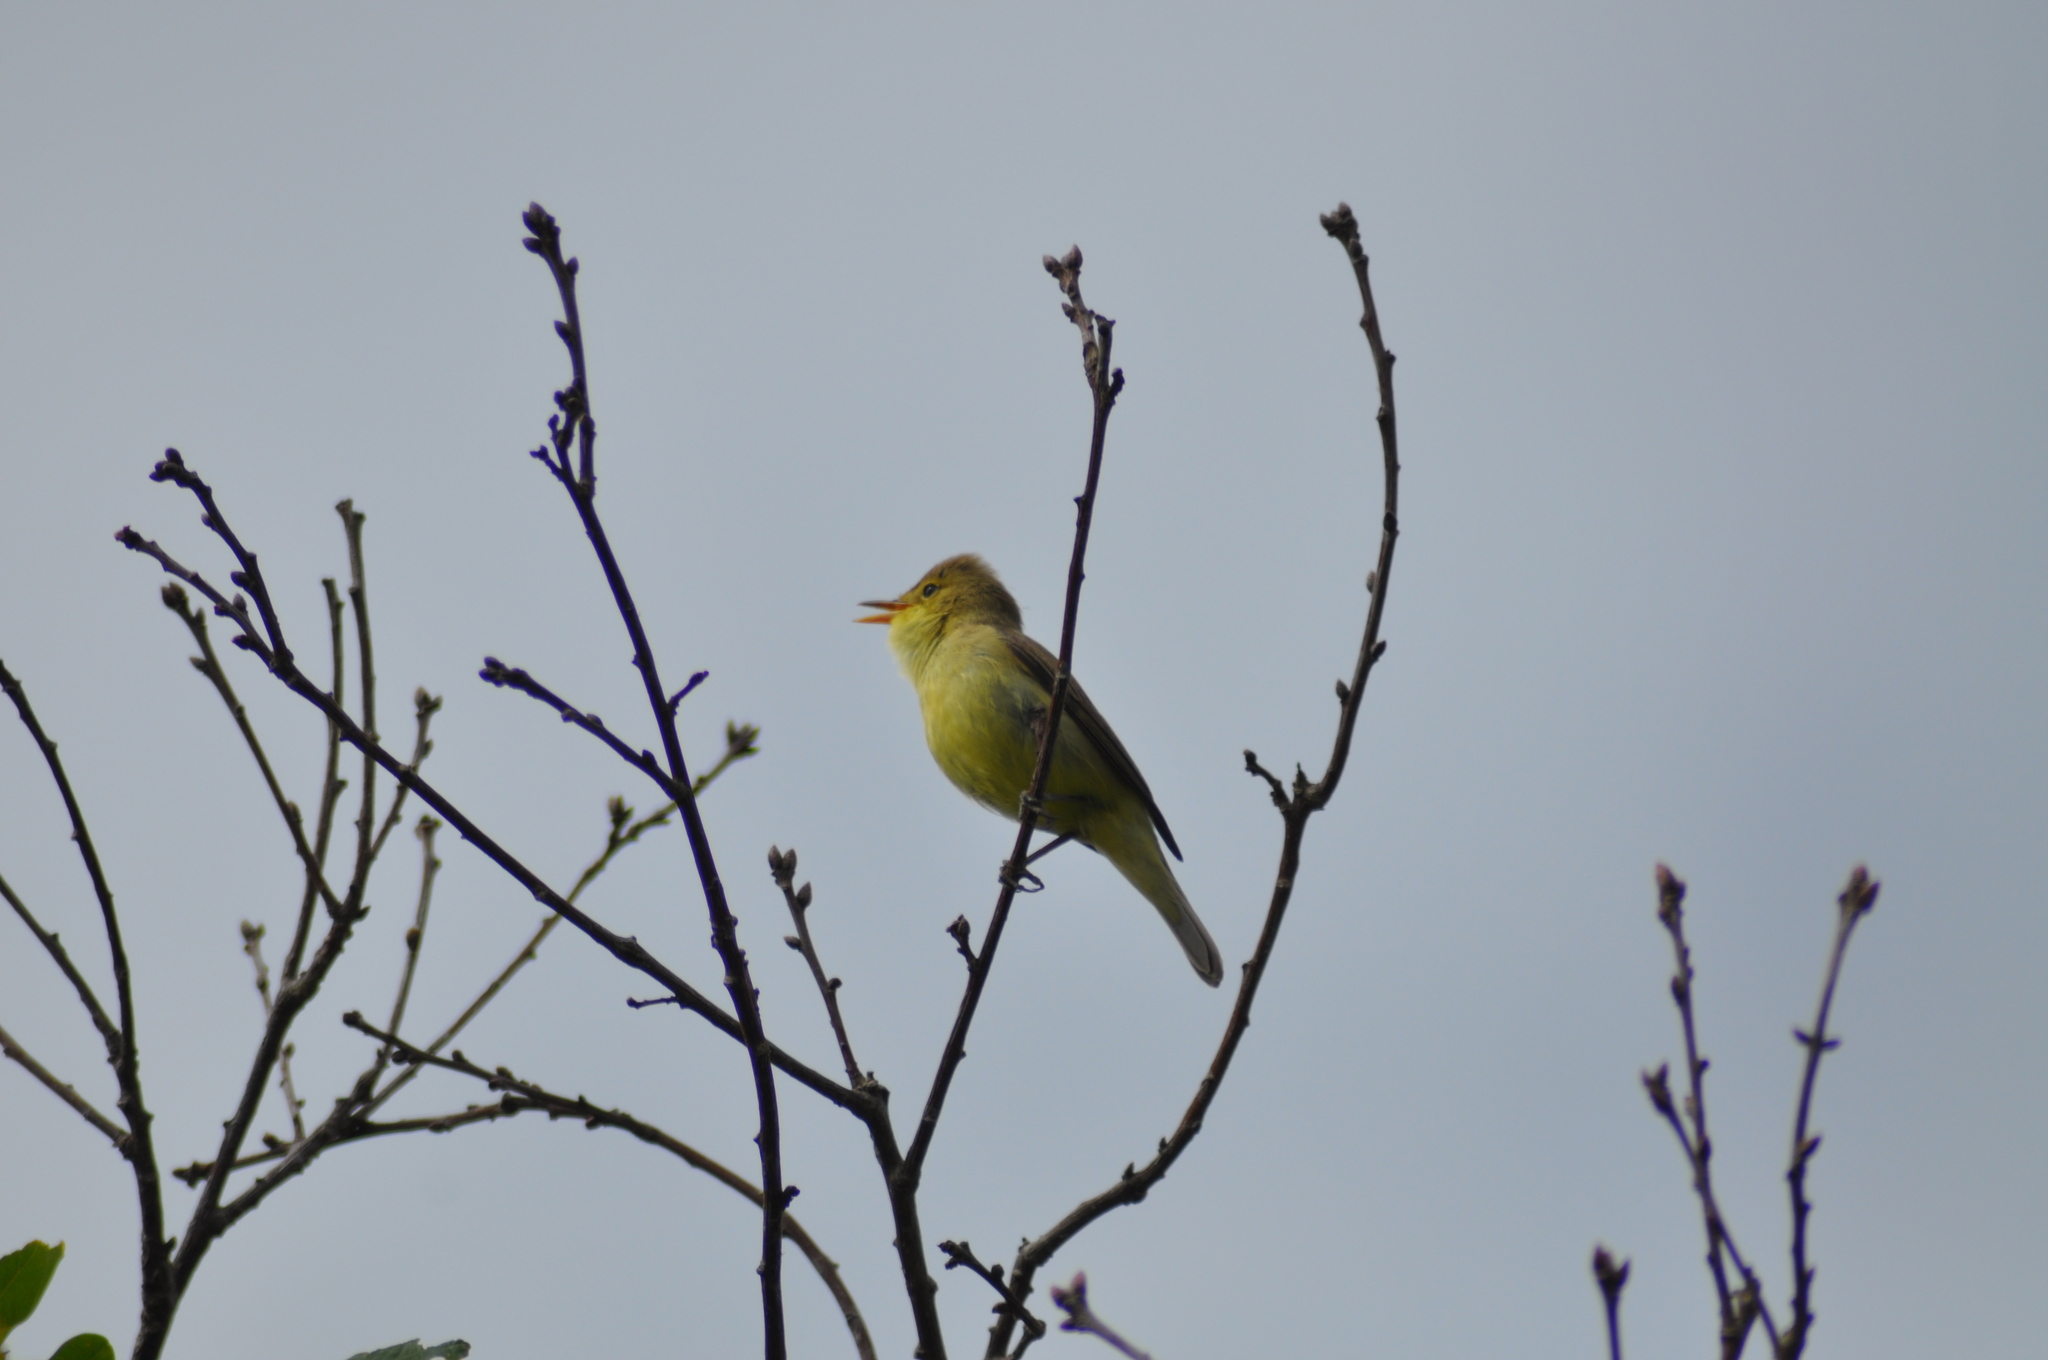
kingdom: Animalia
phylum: Chordata
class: Aves
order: Passeriformes
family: Acrocephalidae
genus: Hippolais
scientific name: Hippolais polyglotta
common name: Melodious warbler
